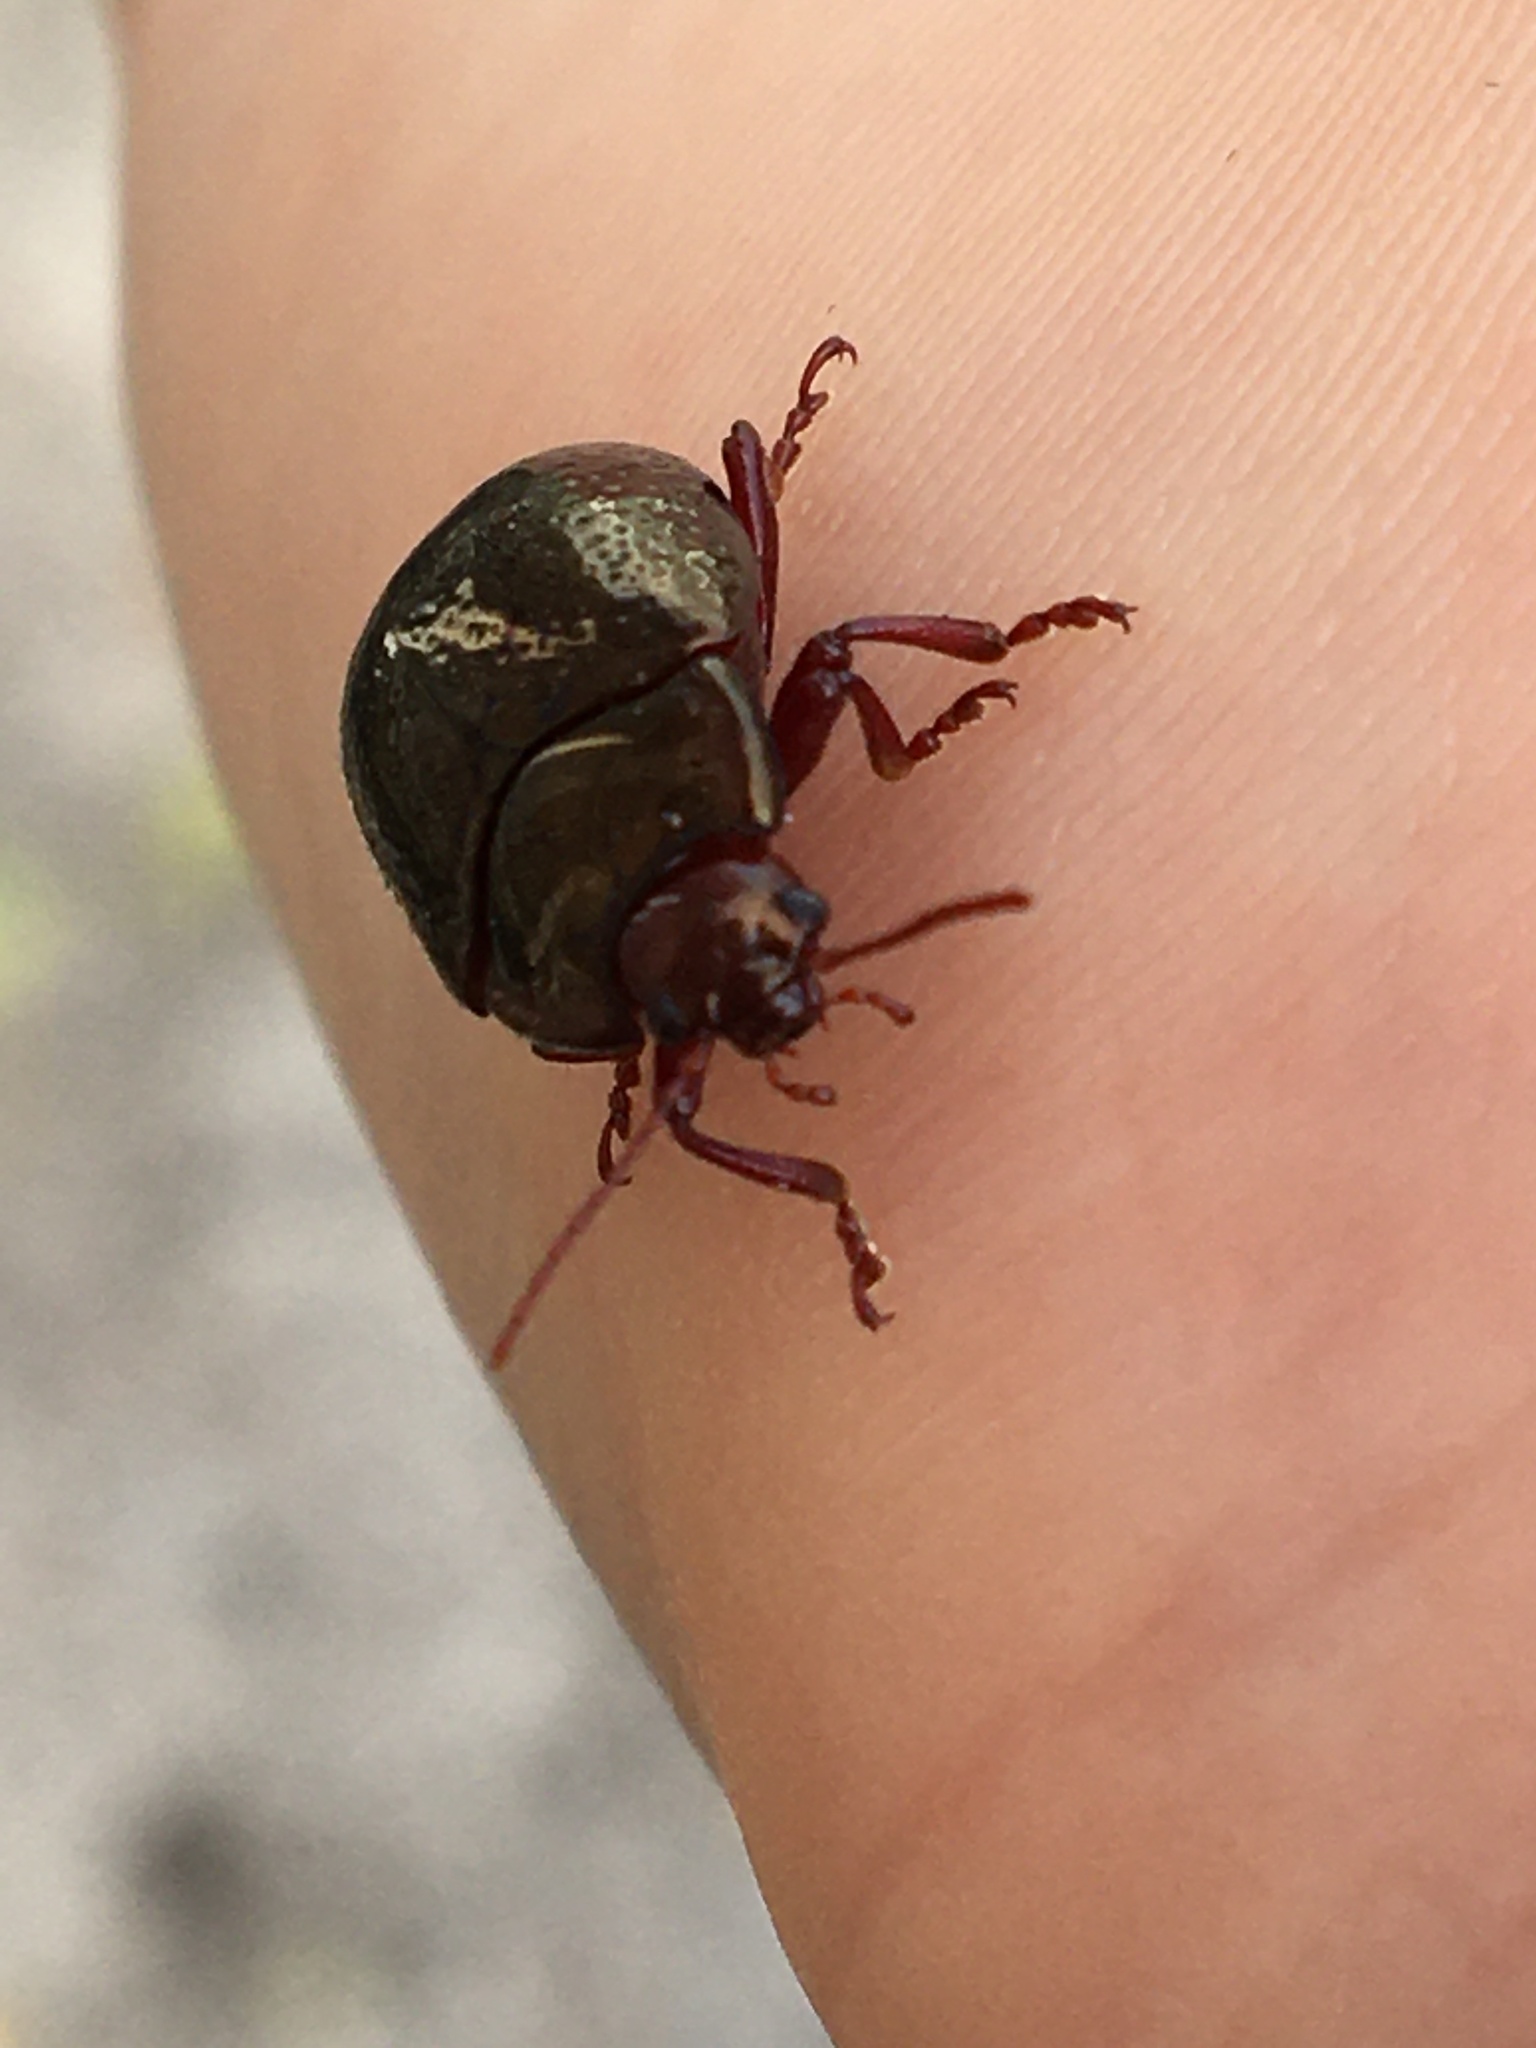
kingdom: Animalia
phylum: Arthropoda
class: Insecta
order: Coleoptera
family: Chrysomelidae
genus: Chrysolina
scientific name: Chrysolina bankii
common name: Leaf beetle
